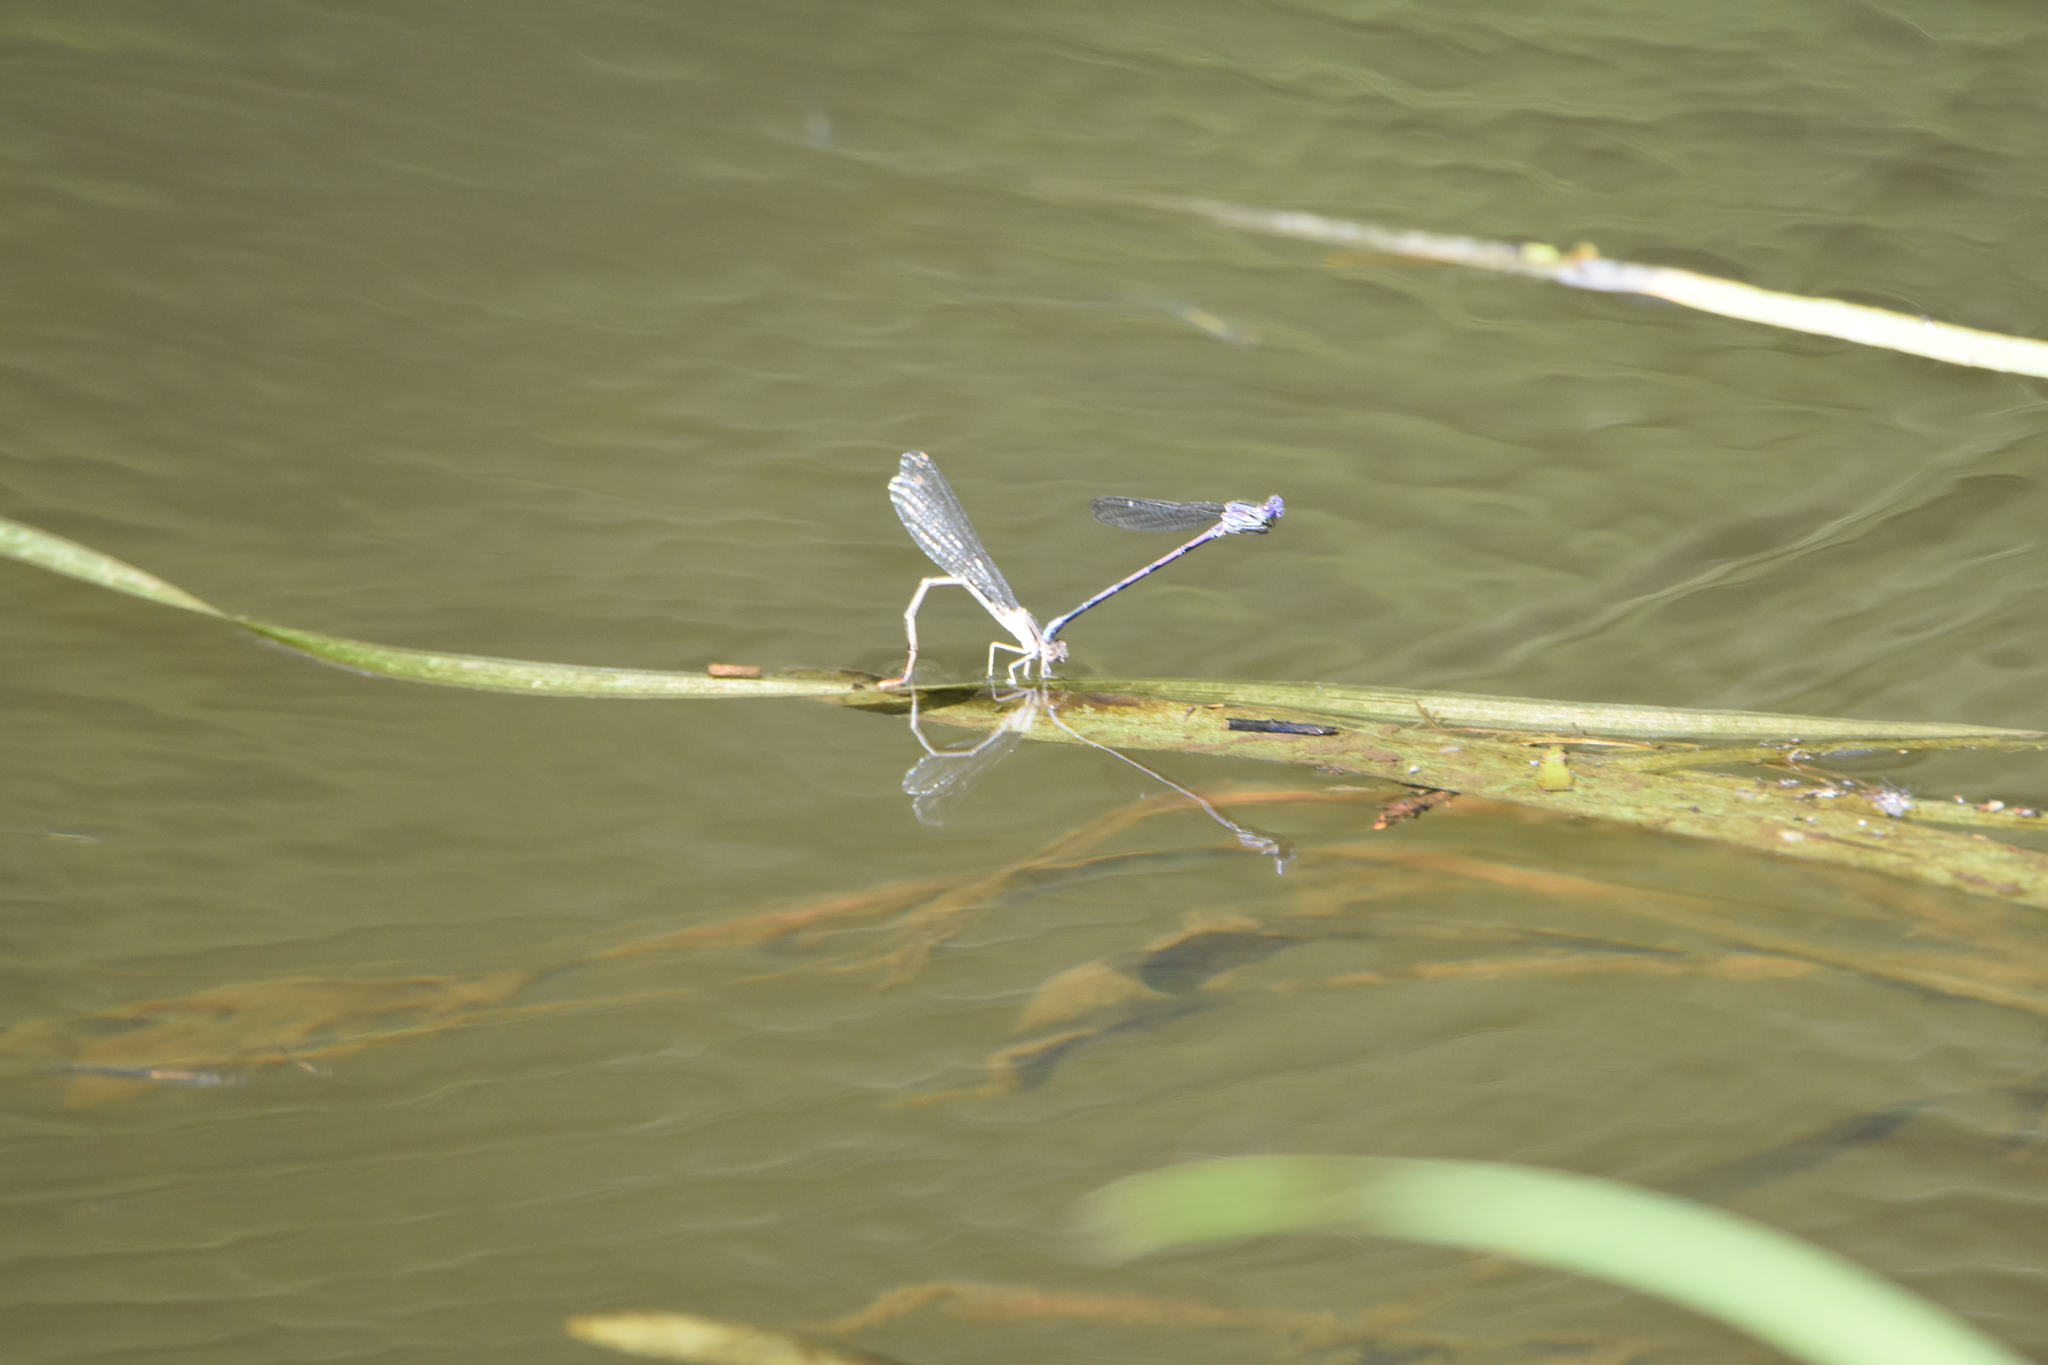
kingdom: Animalia
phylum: Arthropoda
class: Insecta
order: Odonata
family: Coenagrionidae
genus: Argia
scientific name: Argia fumipennis
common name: Variable dancer
